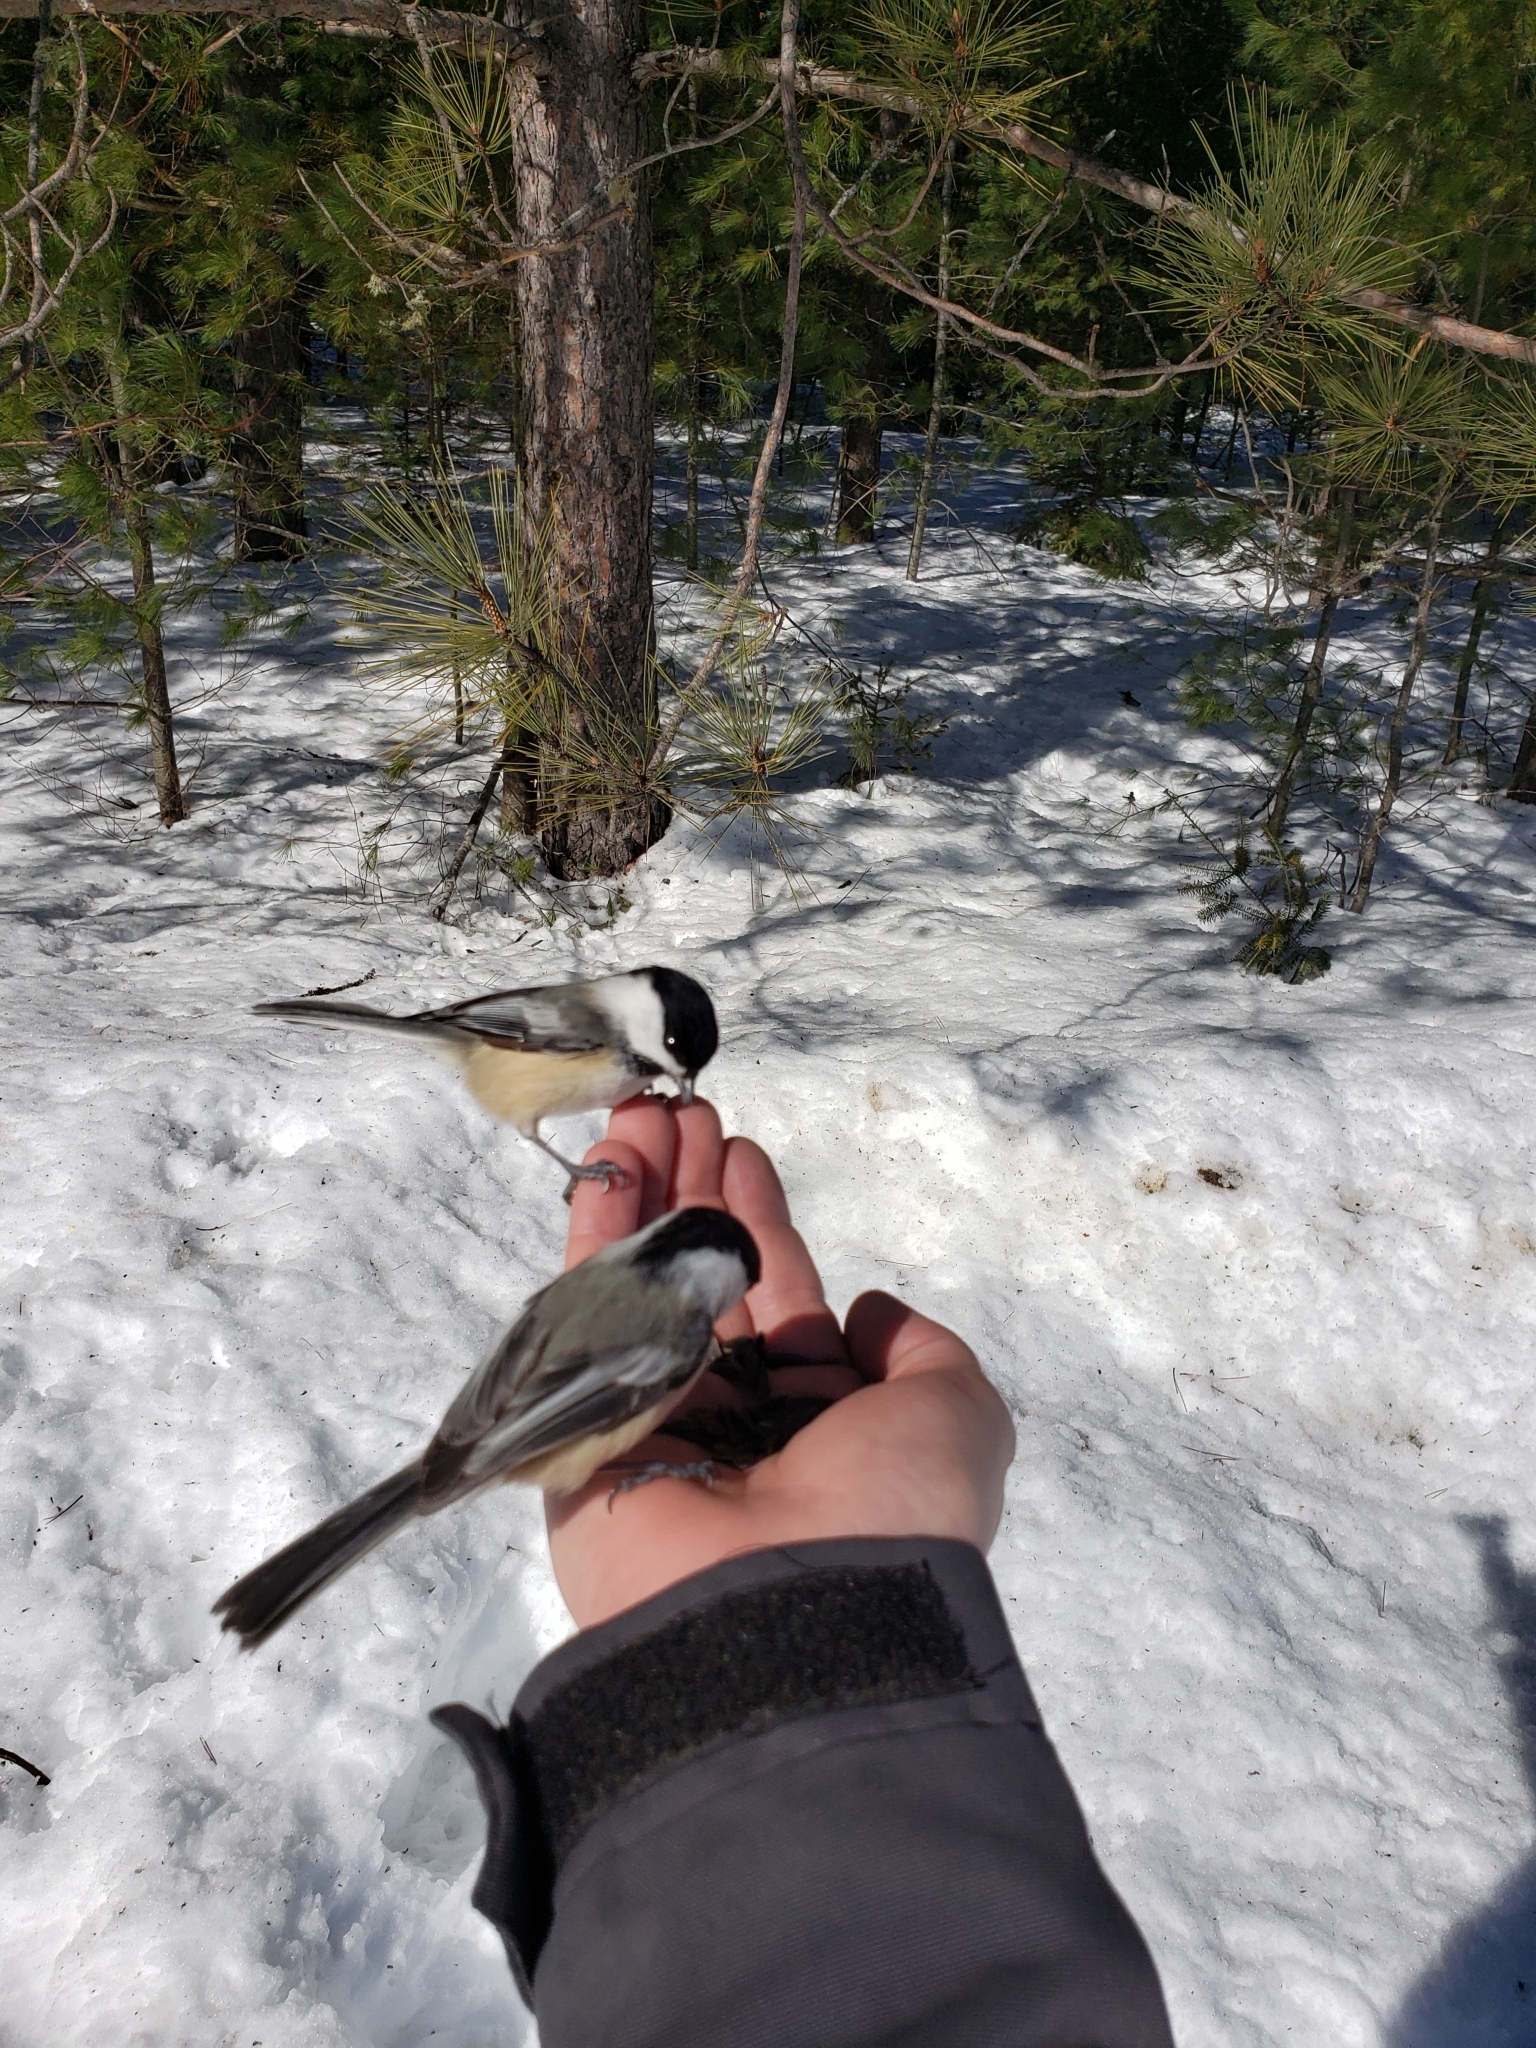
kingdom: Animalia
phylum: Chordata
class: Aves
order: Passeriformes
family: Paridae
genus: Poecile
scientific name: Poecile atricapillus
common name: Black-capped chickadee
